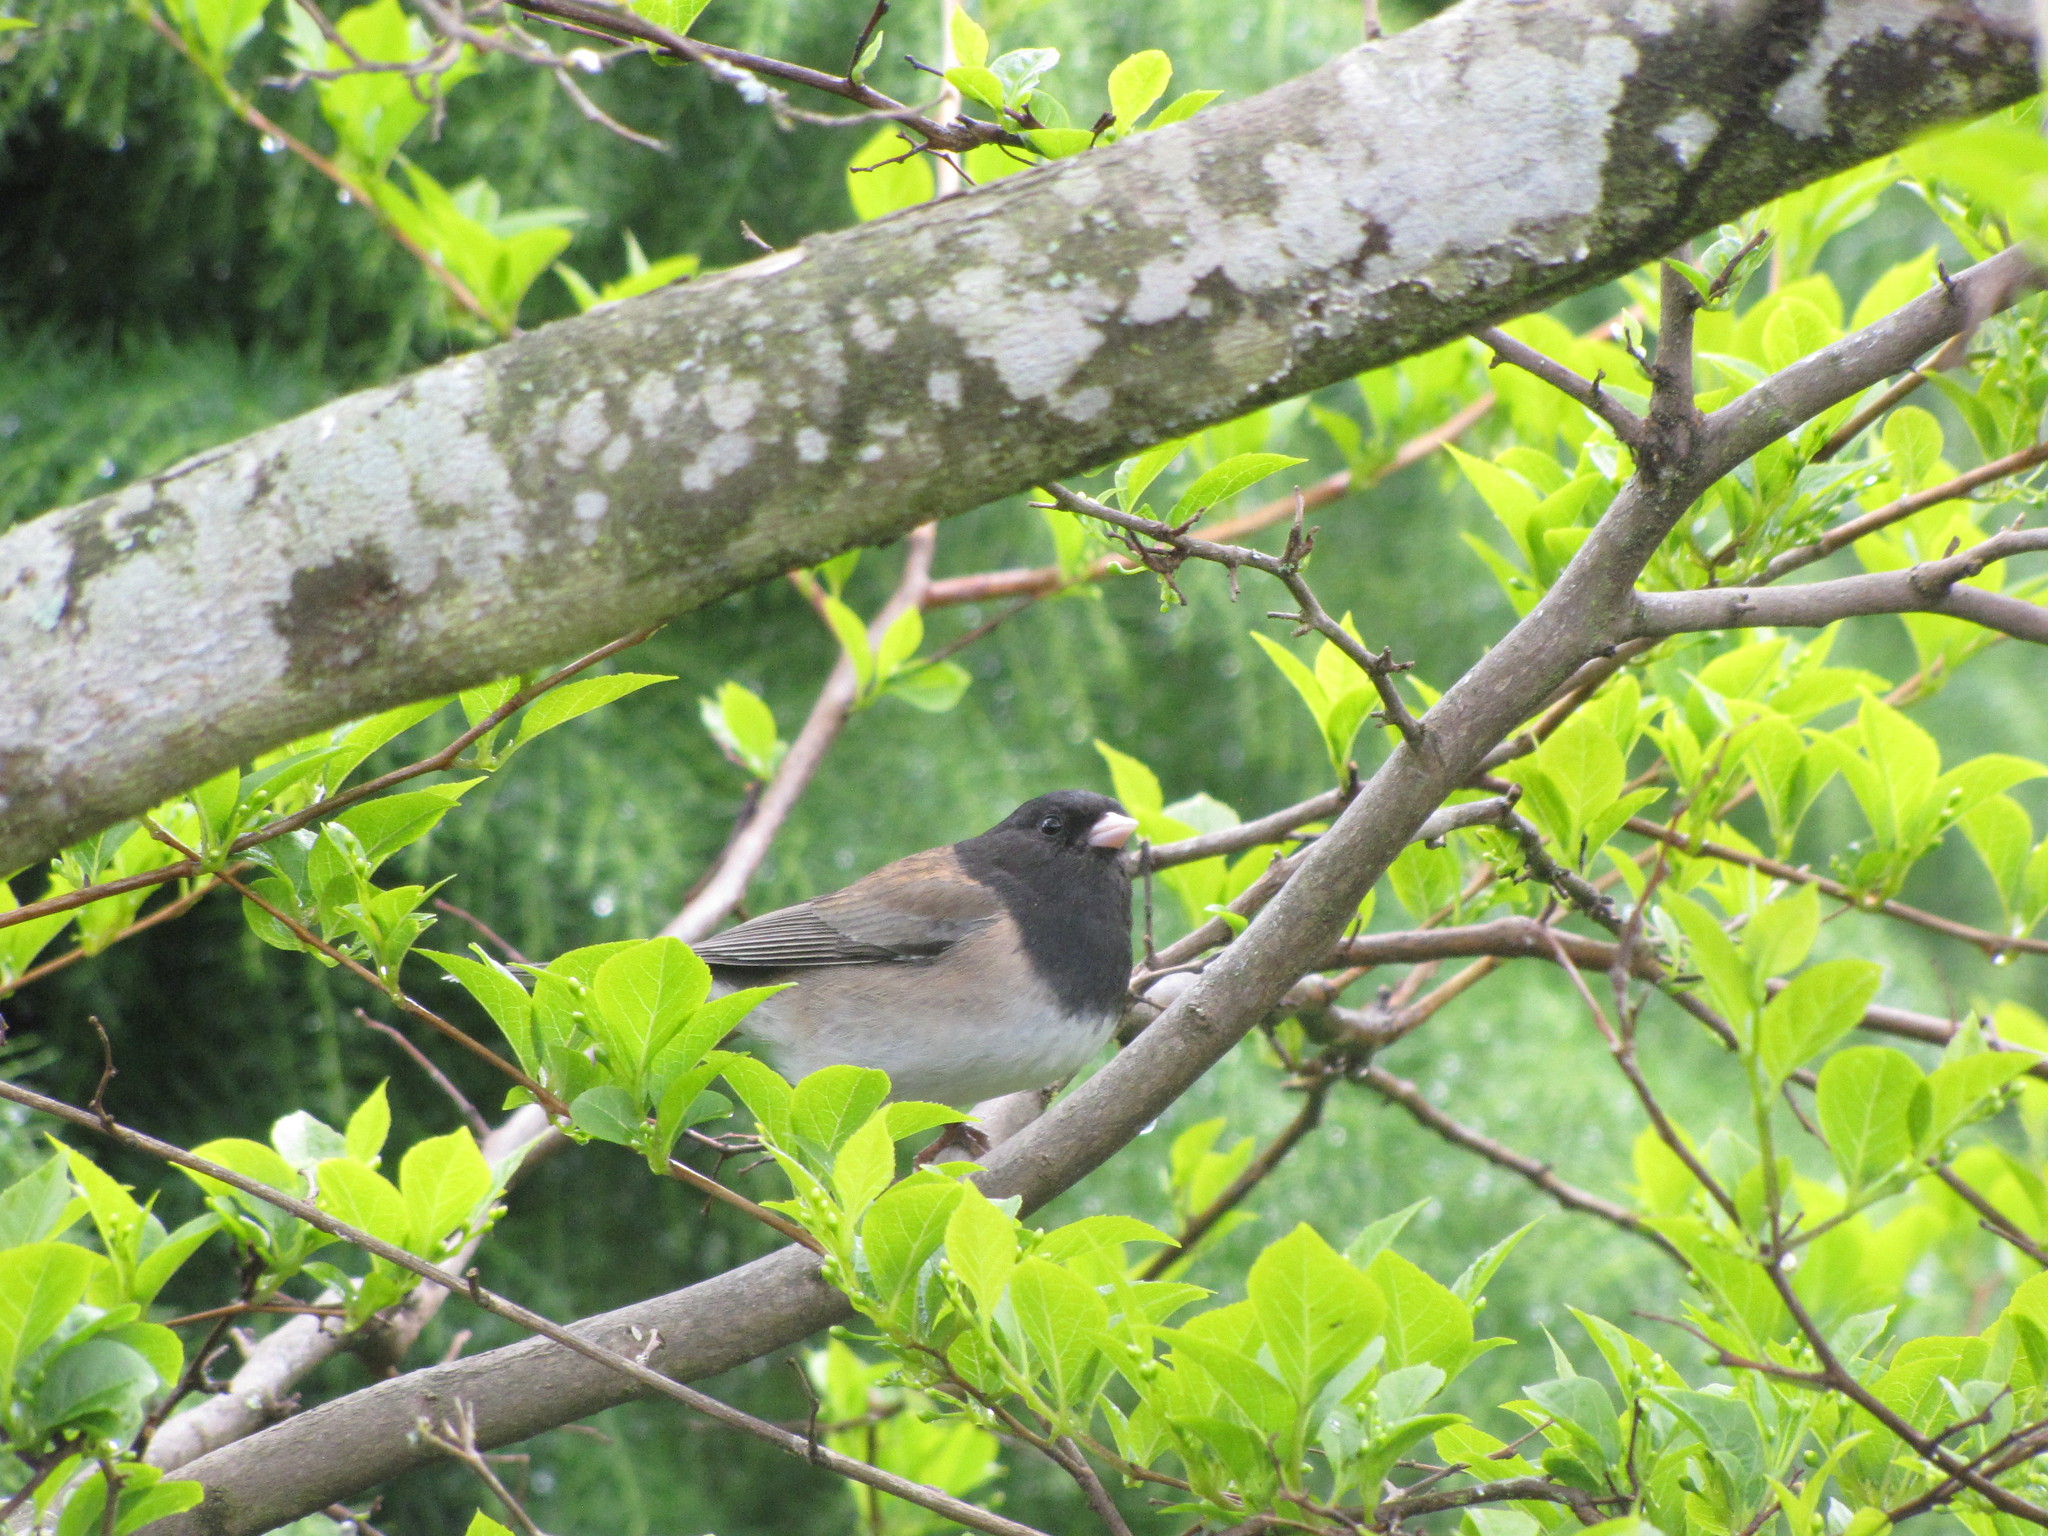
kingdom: Animalia
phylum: Chordata
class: Aves
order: Passeriformes
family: Passerellidae
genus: Junco
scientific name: Junco hyemalis
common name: Dark-eyed junco
